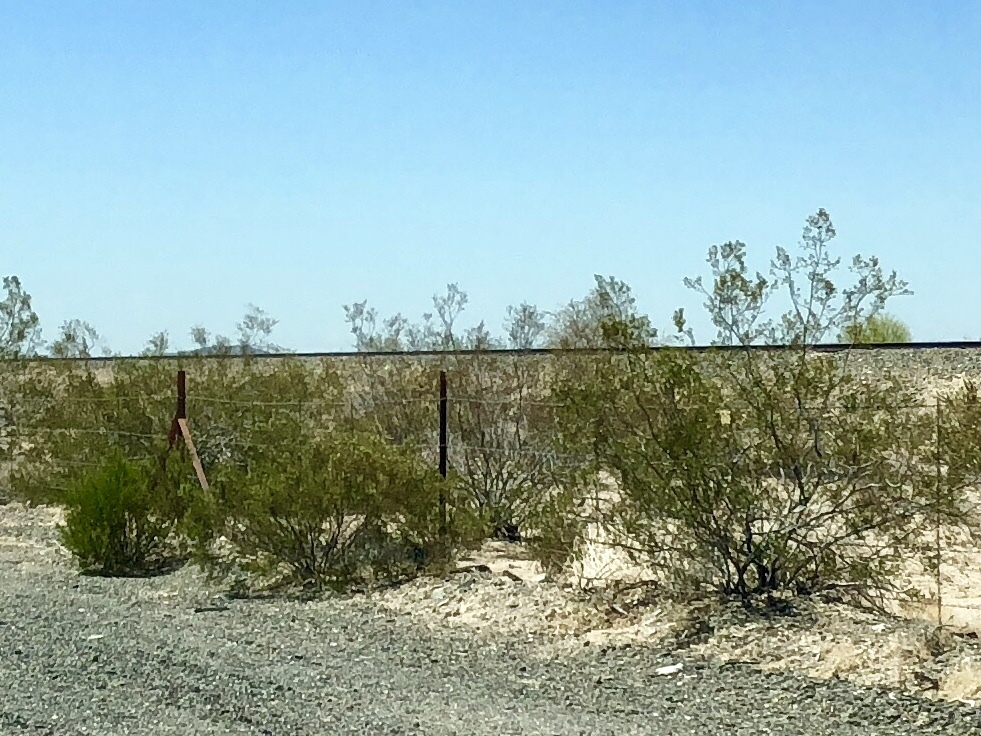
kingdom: Plantae
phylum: Tracheophyta
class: Magnoliopsida
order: Zygophyllales
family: Zygophyllaceae
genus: Larrea
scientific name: Larrea tridentata
